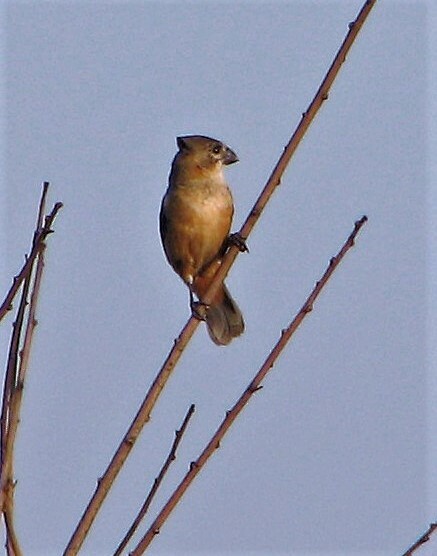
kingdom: Animalia
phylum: Chordata
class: Aves
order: Passeriformes
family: Thraupidae
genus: Sporophila
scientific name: Sporophila collaris
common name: Rusty-collared seedeater
